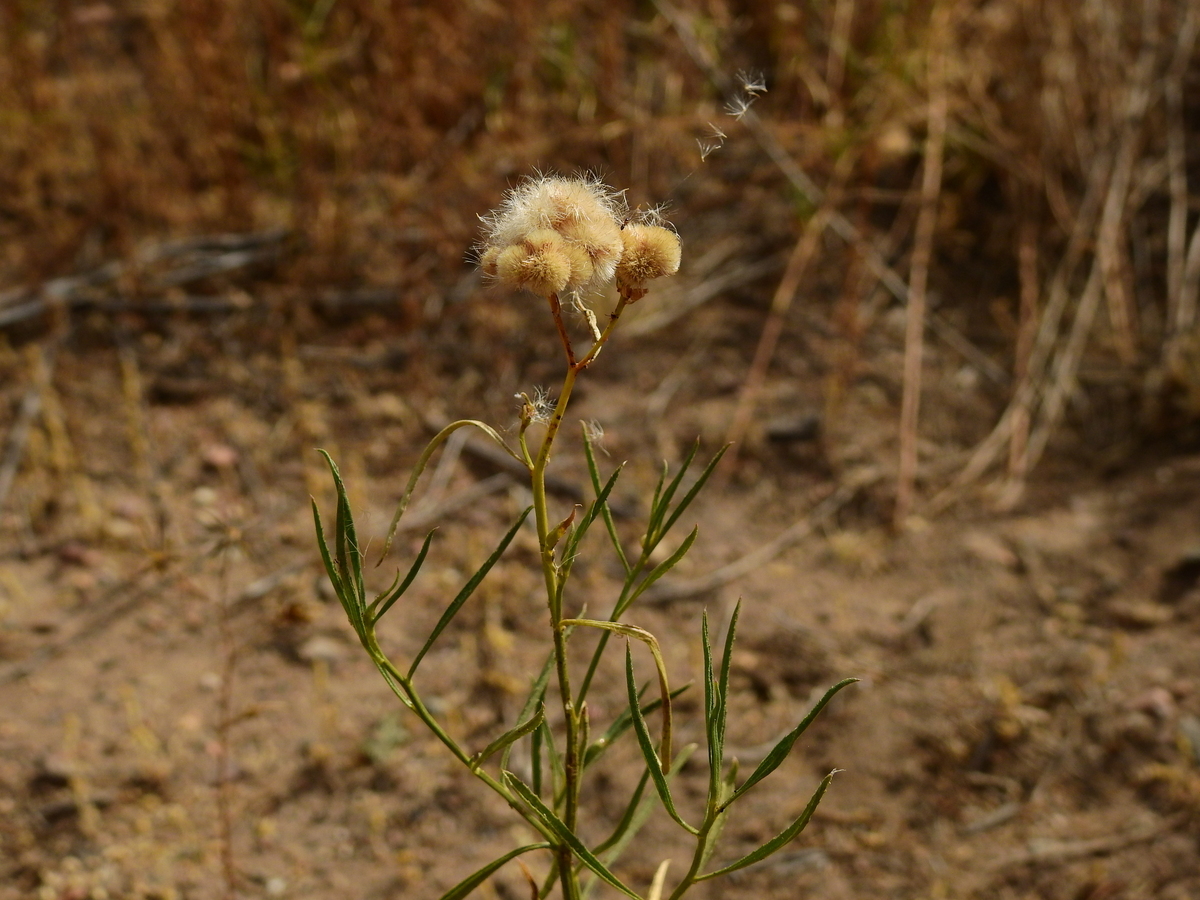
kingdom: Plantae
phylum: Tracheophyta
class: Magnoliopsida
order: Asterales
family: Asteraceae
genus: Baccharis
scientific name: Baccharis glutinosa
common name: Saltmarsh baccharis
